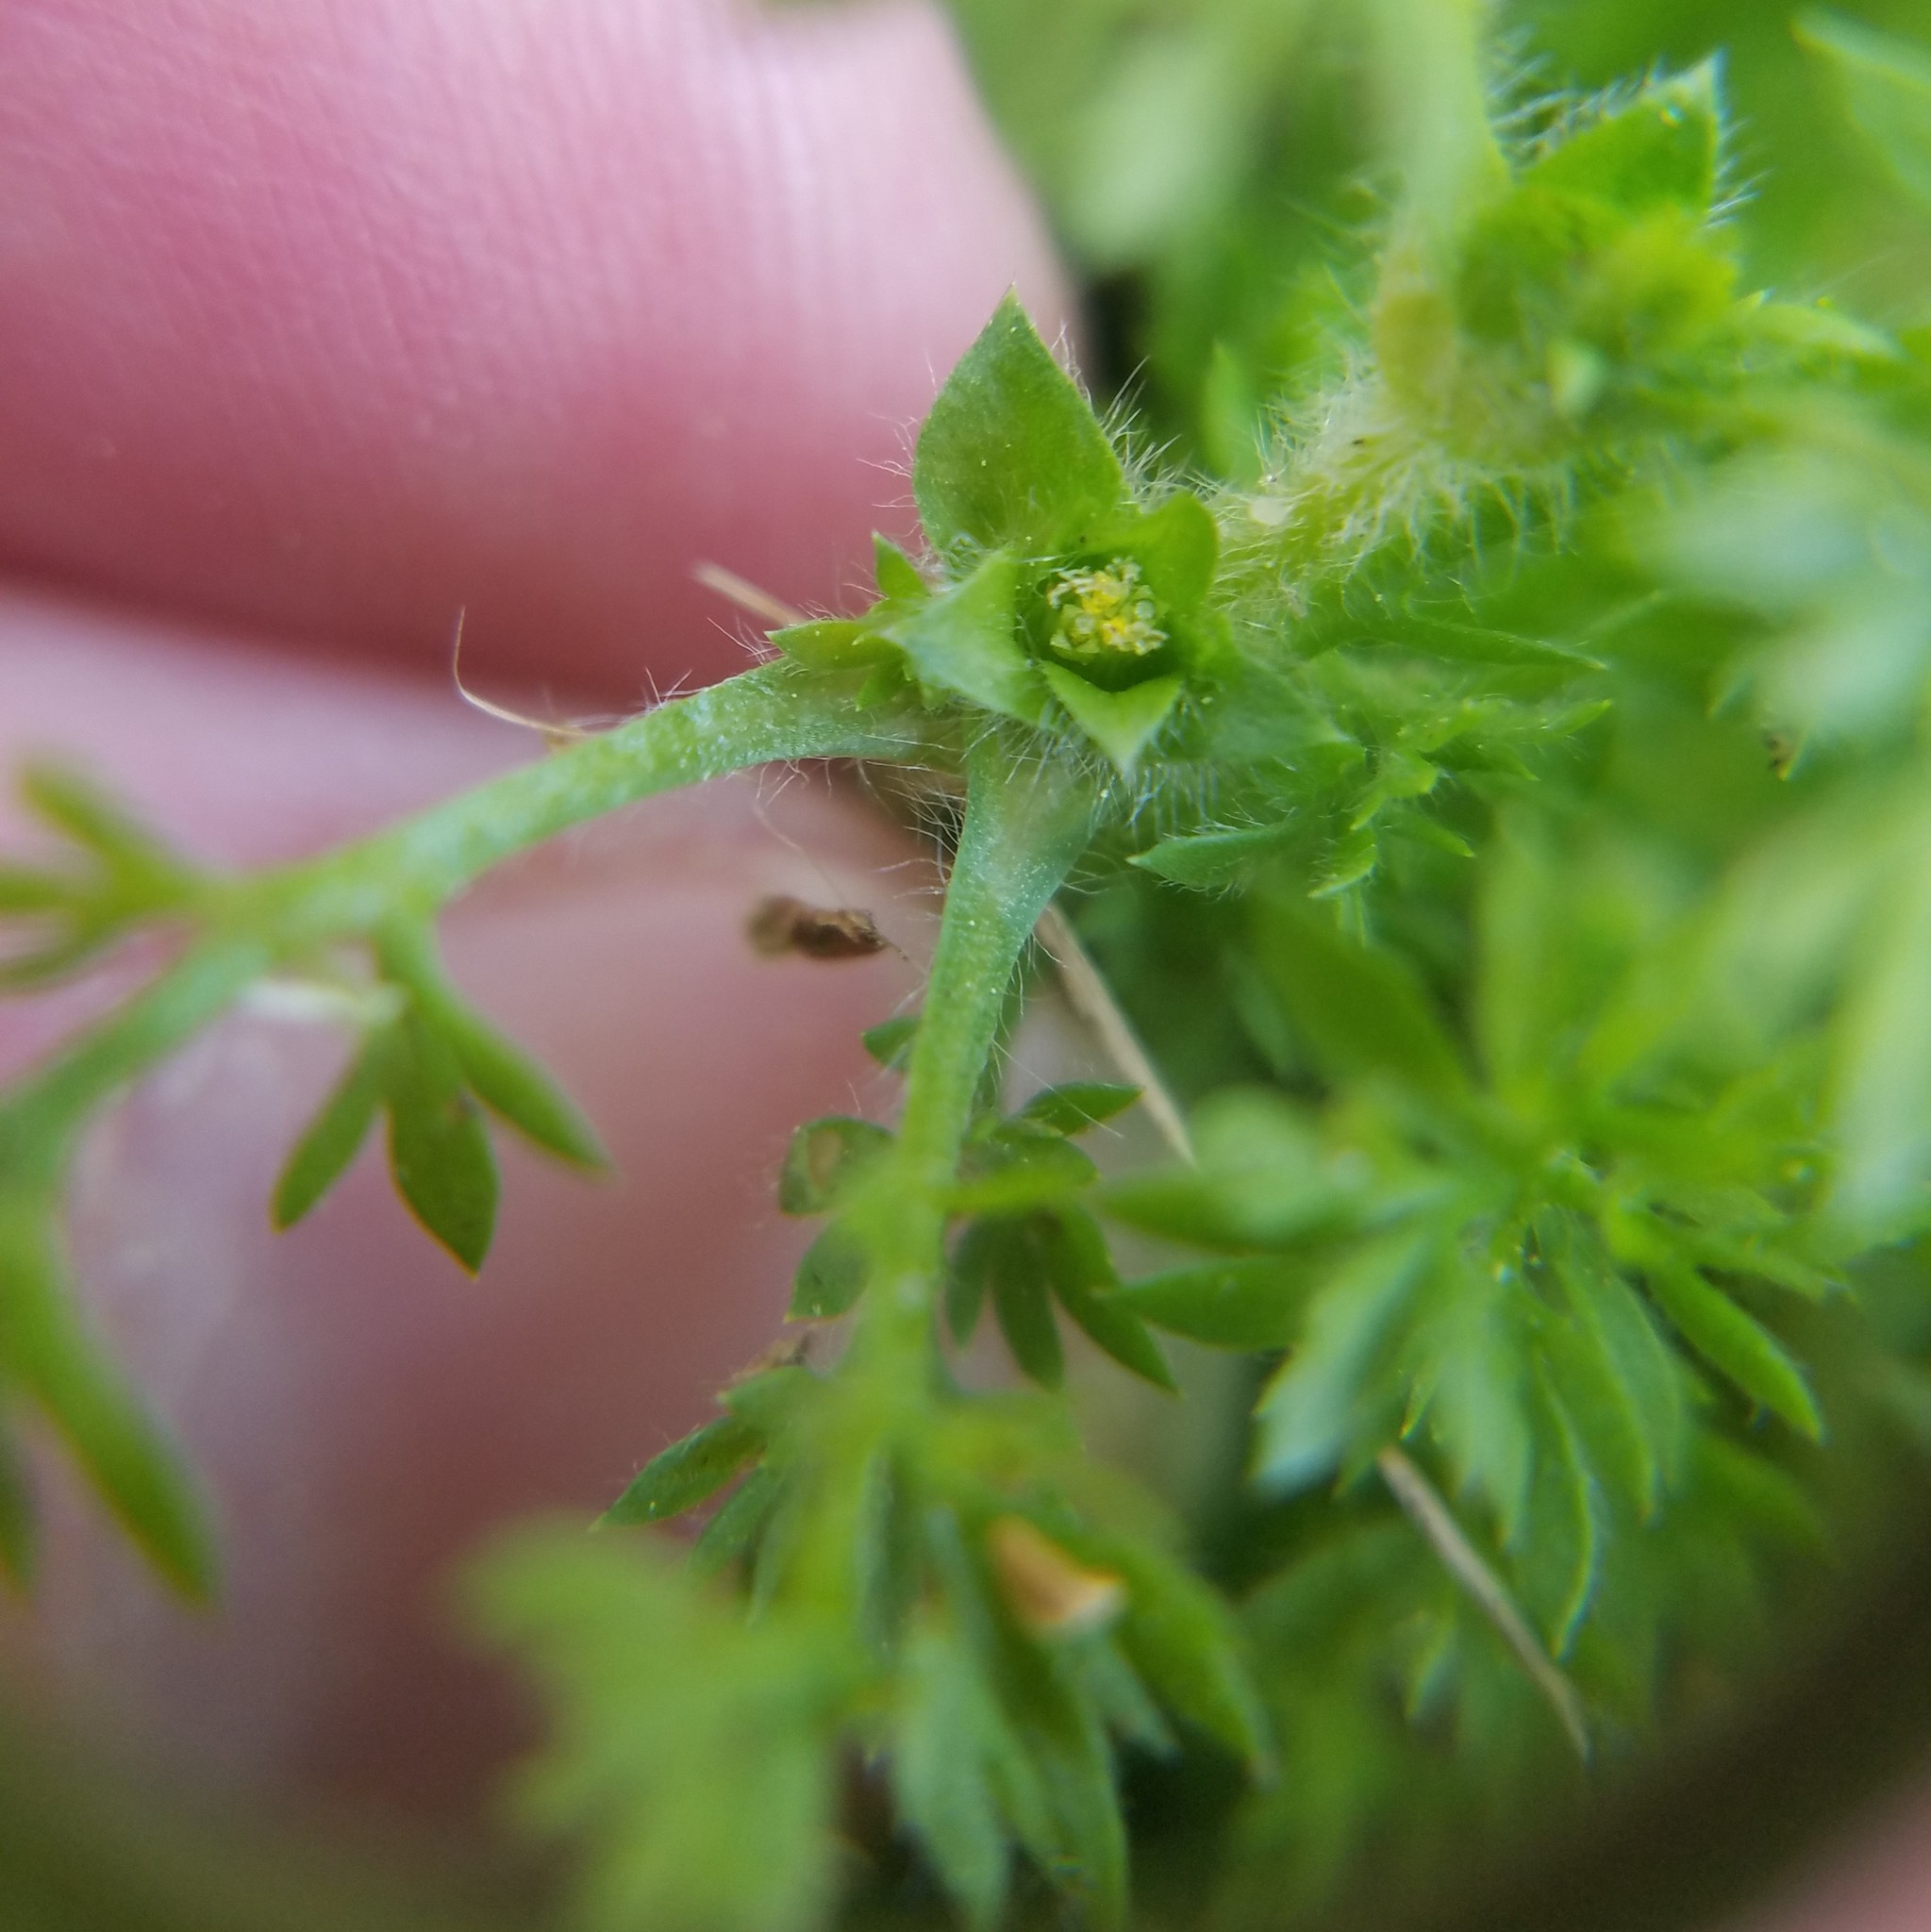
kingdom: Plantae
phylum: Tracheophyta
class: Magnoliopsida
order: Asterales
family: Asteraceae
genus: Soliva
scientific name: Soliva sessilis
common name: Field burrweed
